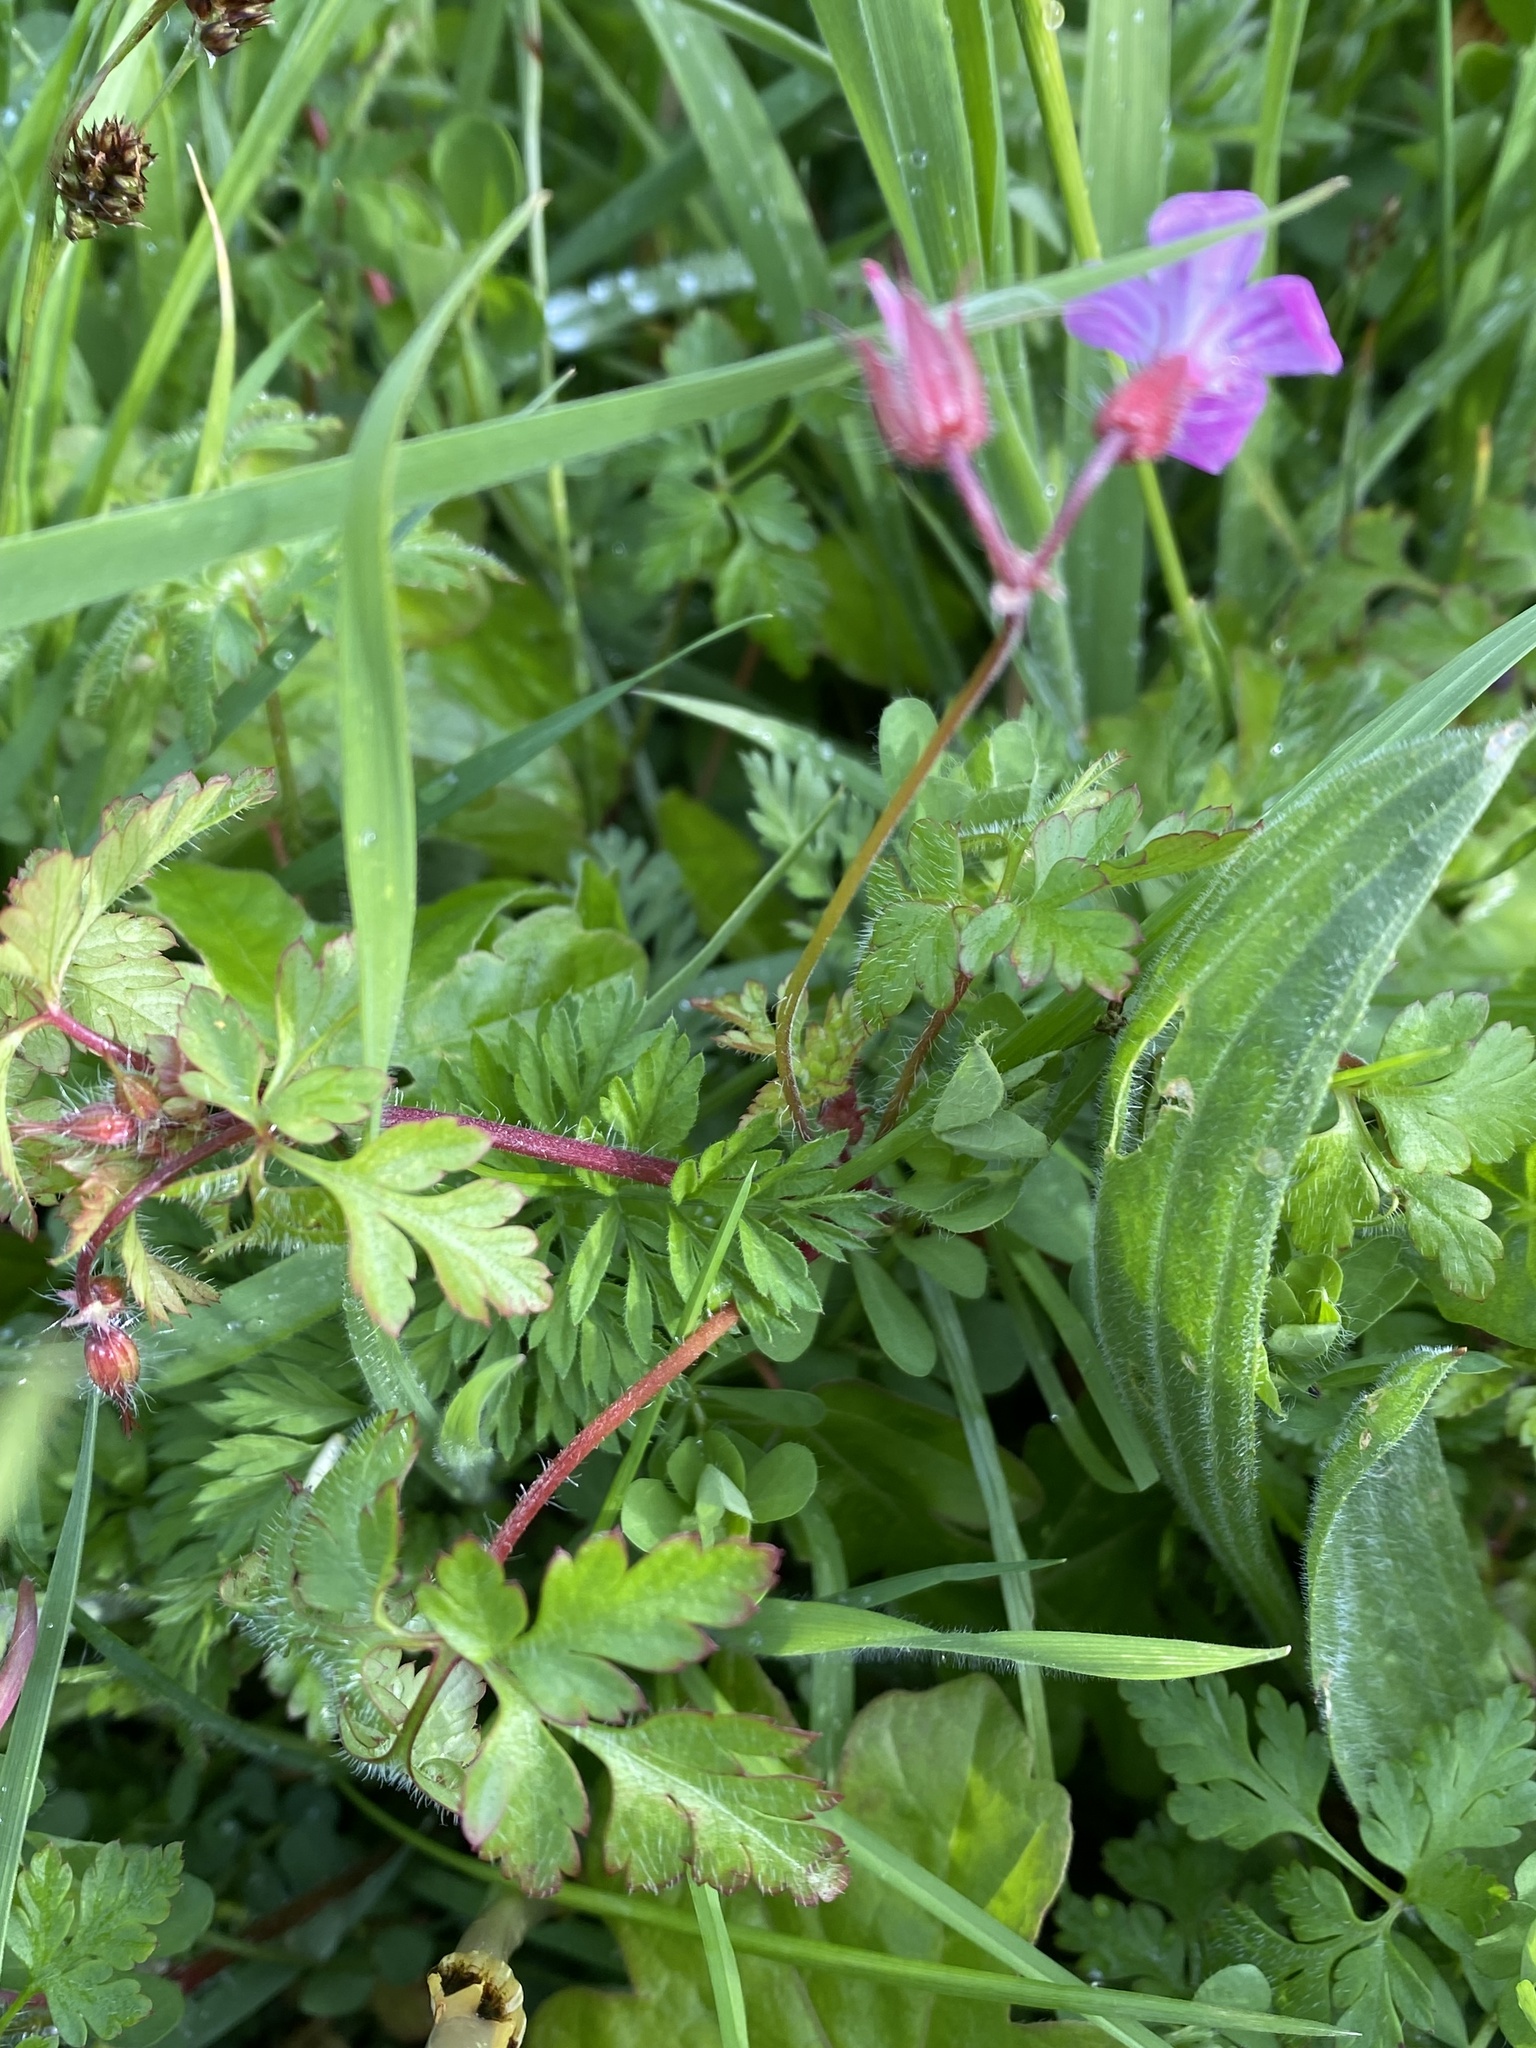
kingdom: Plantae
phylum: Tracheophyta
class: Magnoliopsida
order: Geraniales
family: Geraniaceae
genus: Geranium
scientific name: Geranium robertianum
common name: Herb-robert
